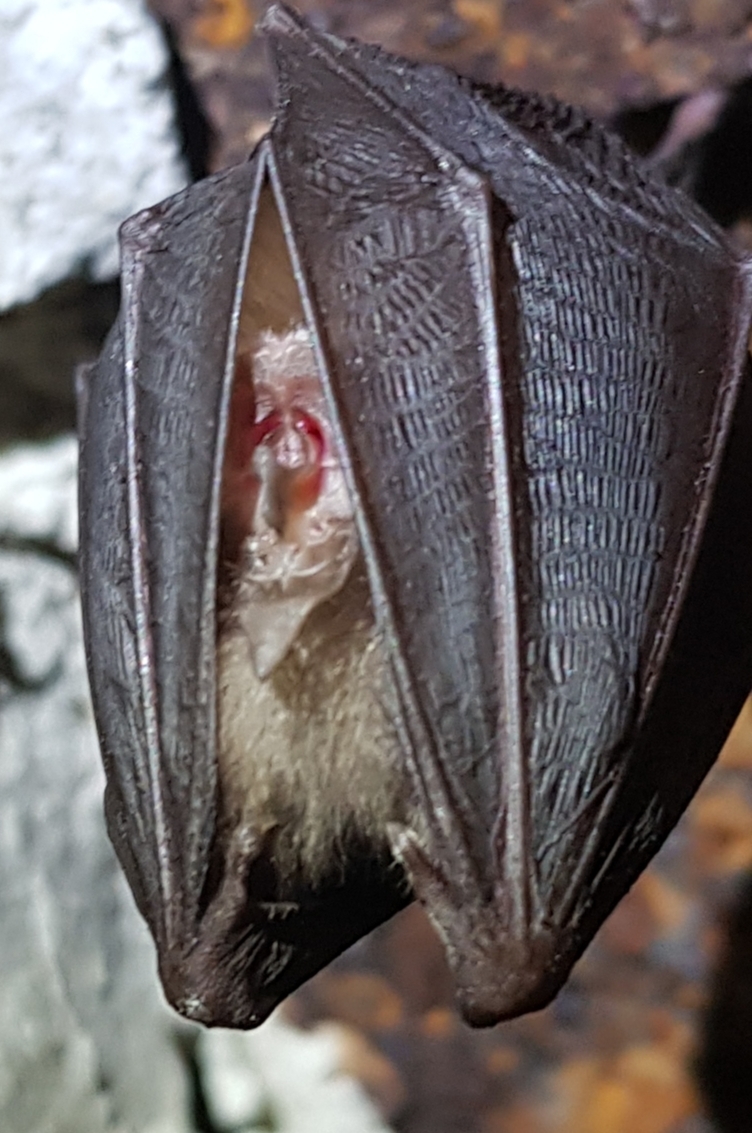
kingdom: Animalia
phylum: Chordata
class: Mammalia
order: Chiroptera
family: Rhinolophidae
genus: Rhinolophus
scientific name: Rhinolophus hipposideros
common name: Lesser horseshoe bat
